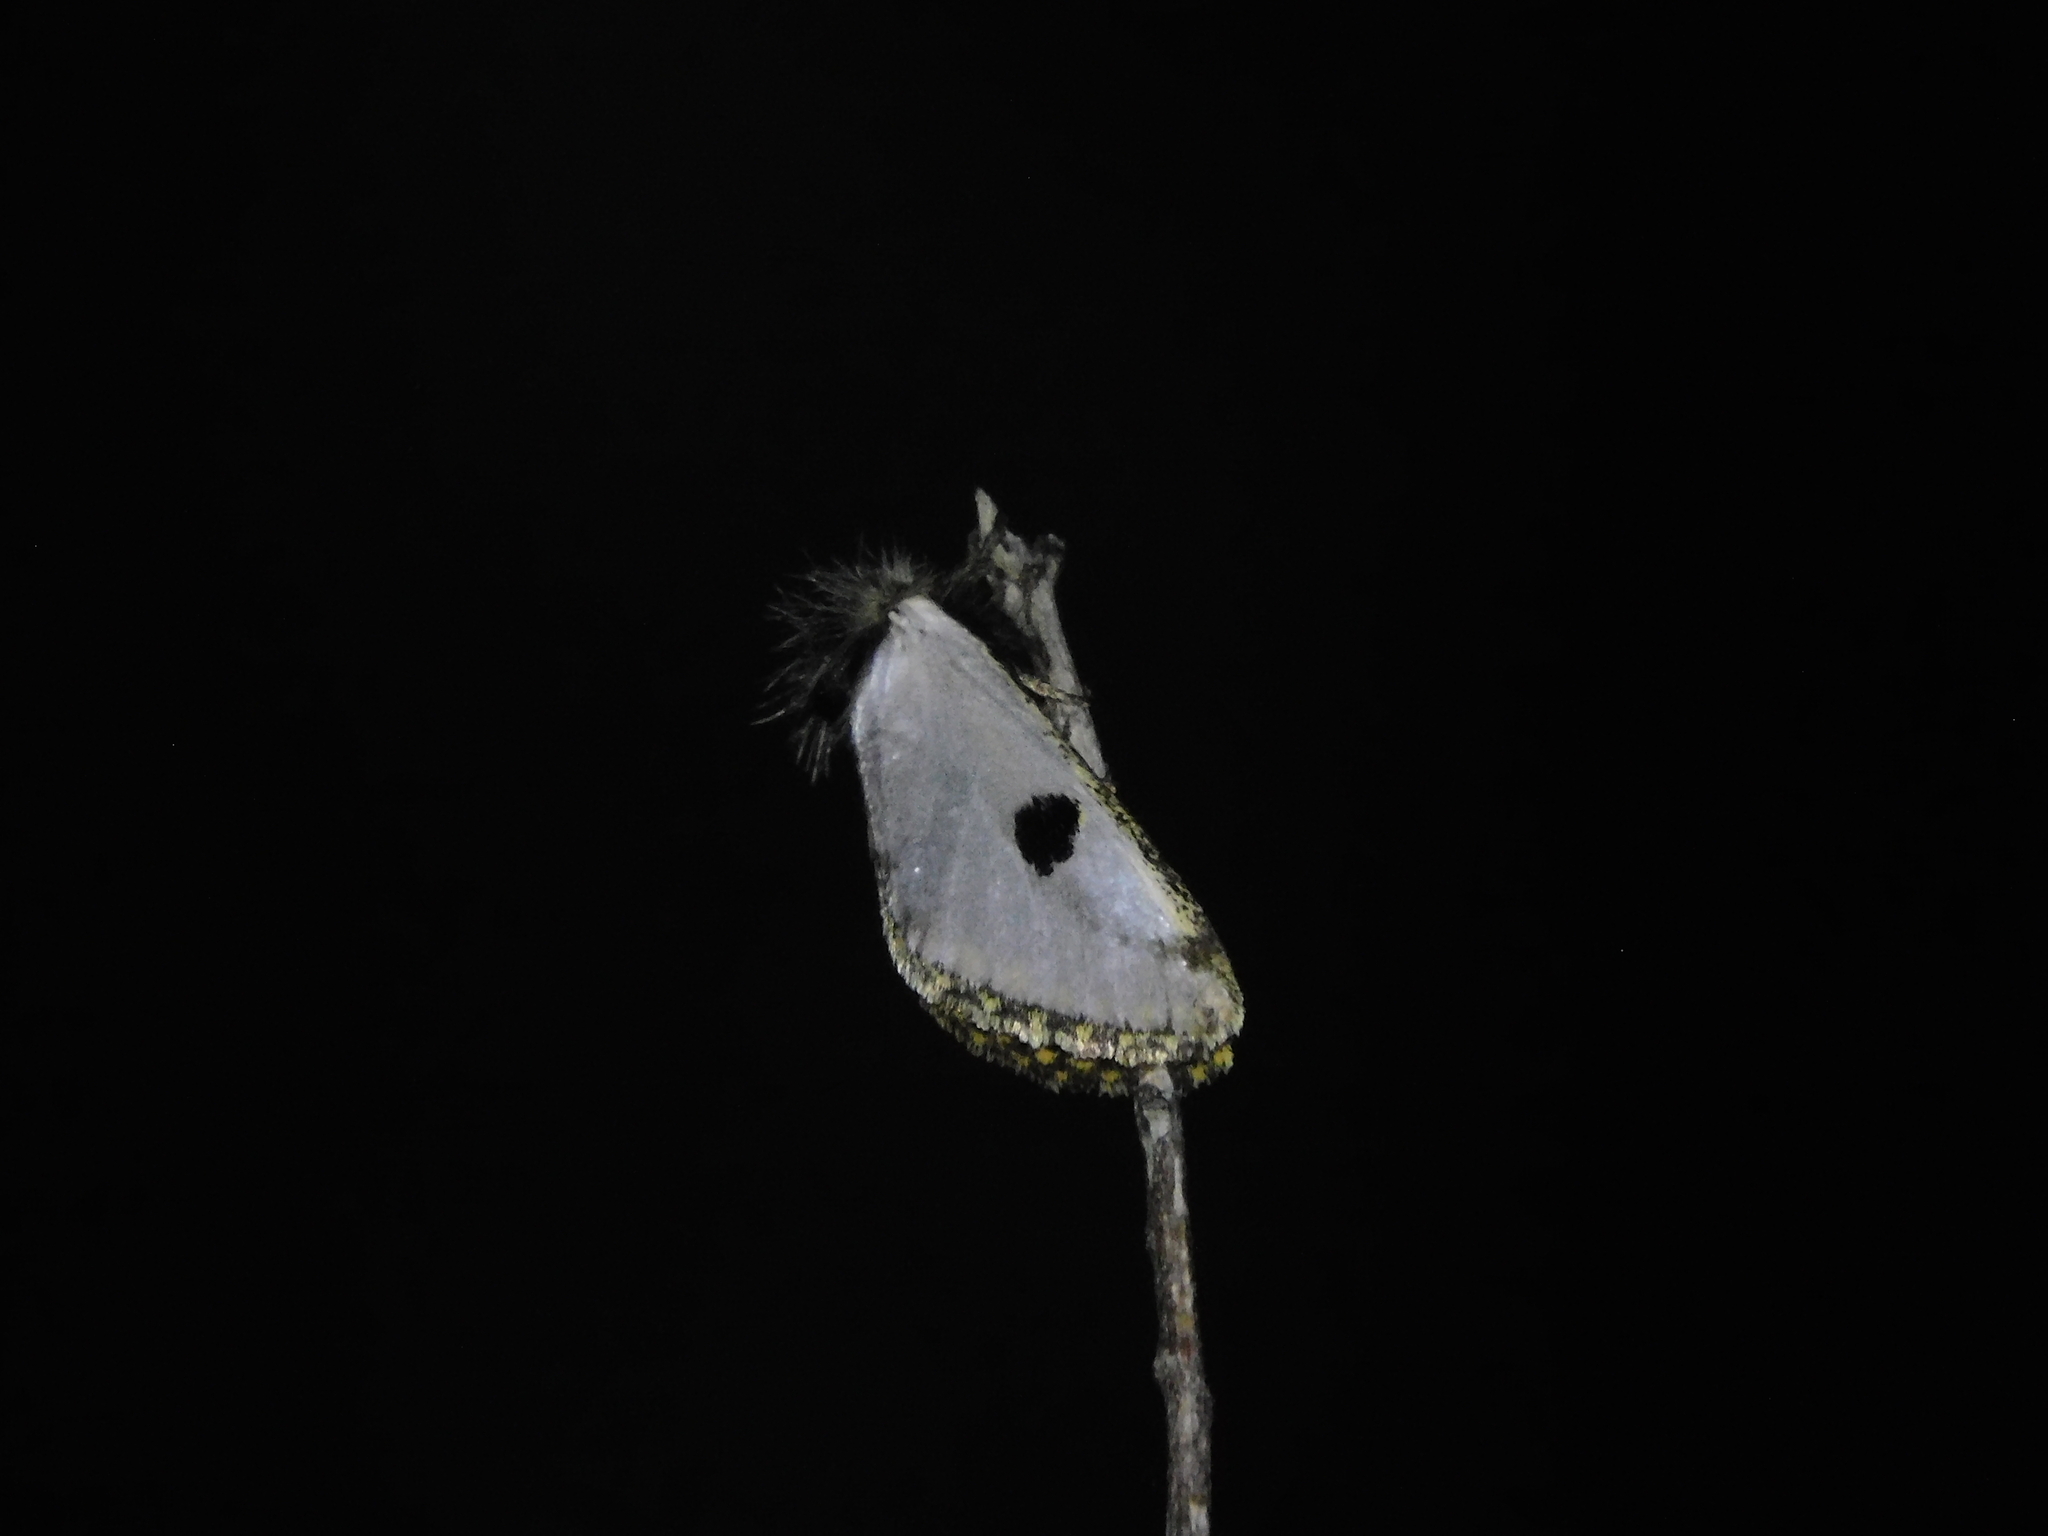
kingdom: Animalia
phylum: Arthropoda
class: Insecta
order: Lepidoptera
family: Notodontidae
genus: Epicoma
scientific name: Epicoma melanospila
